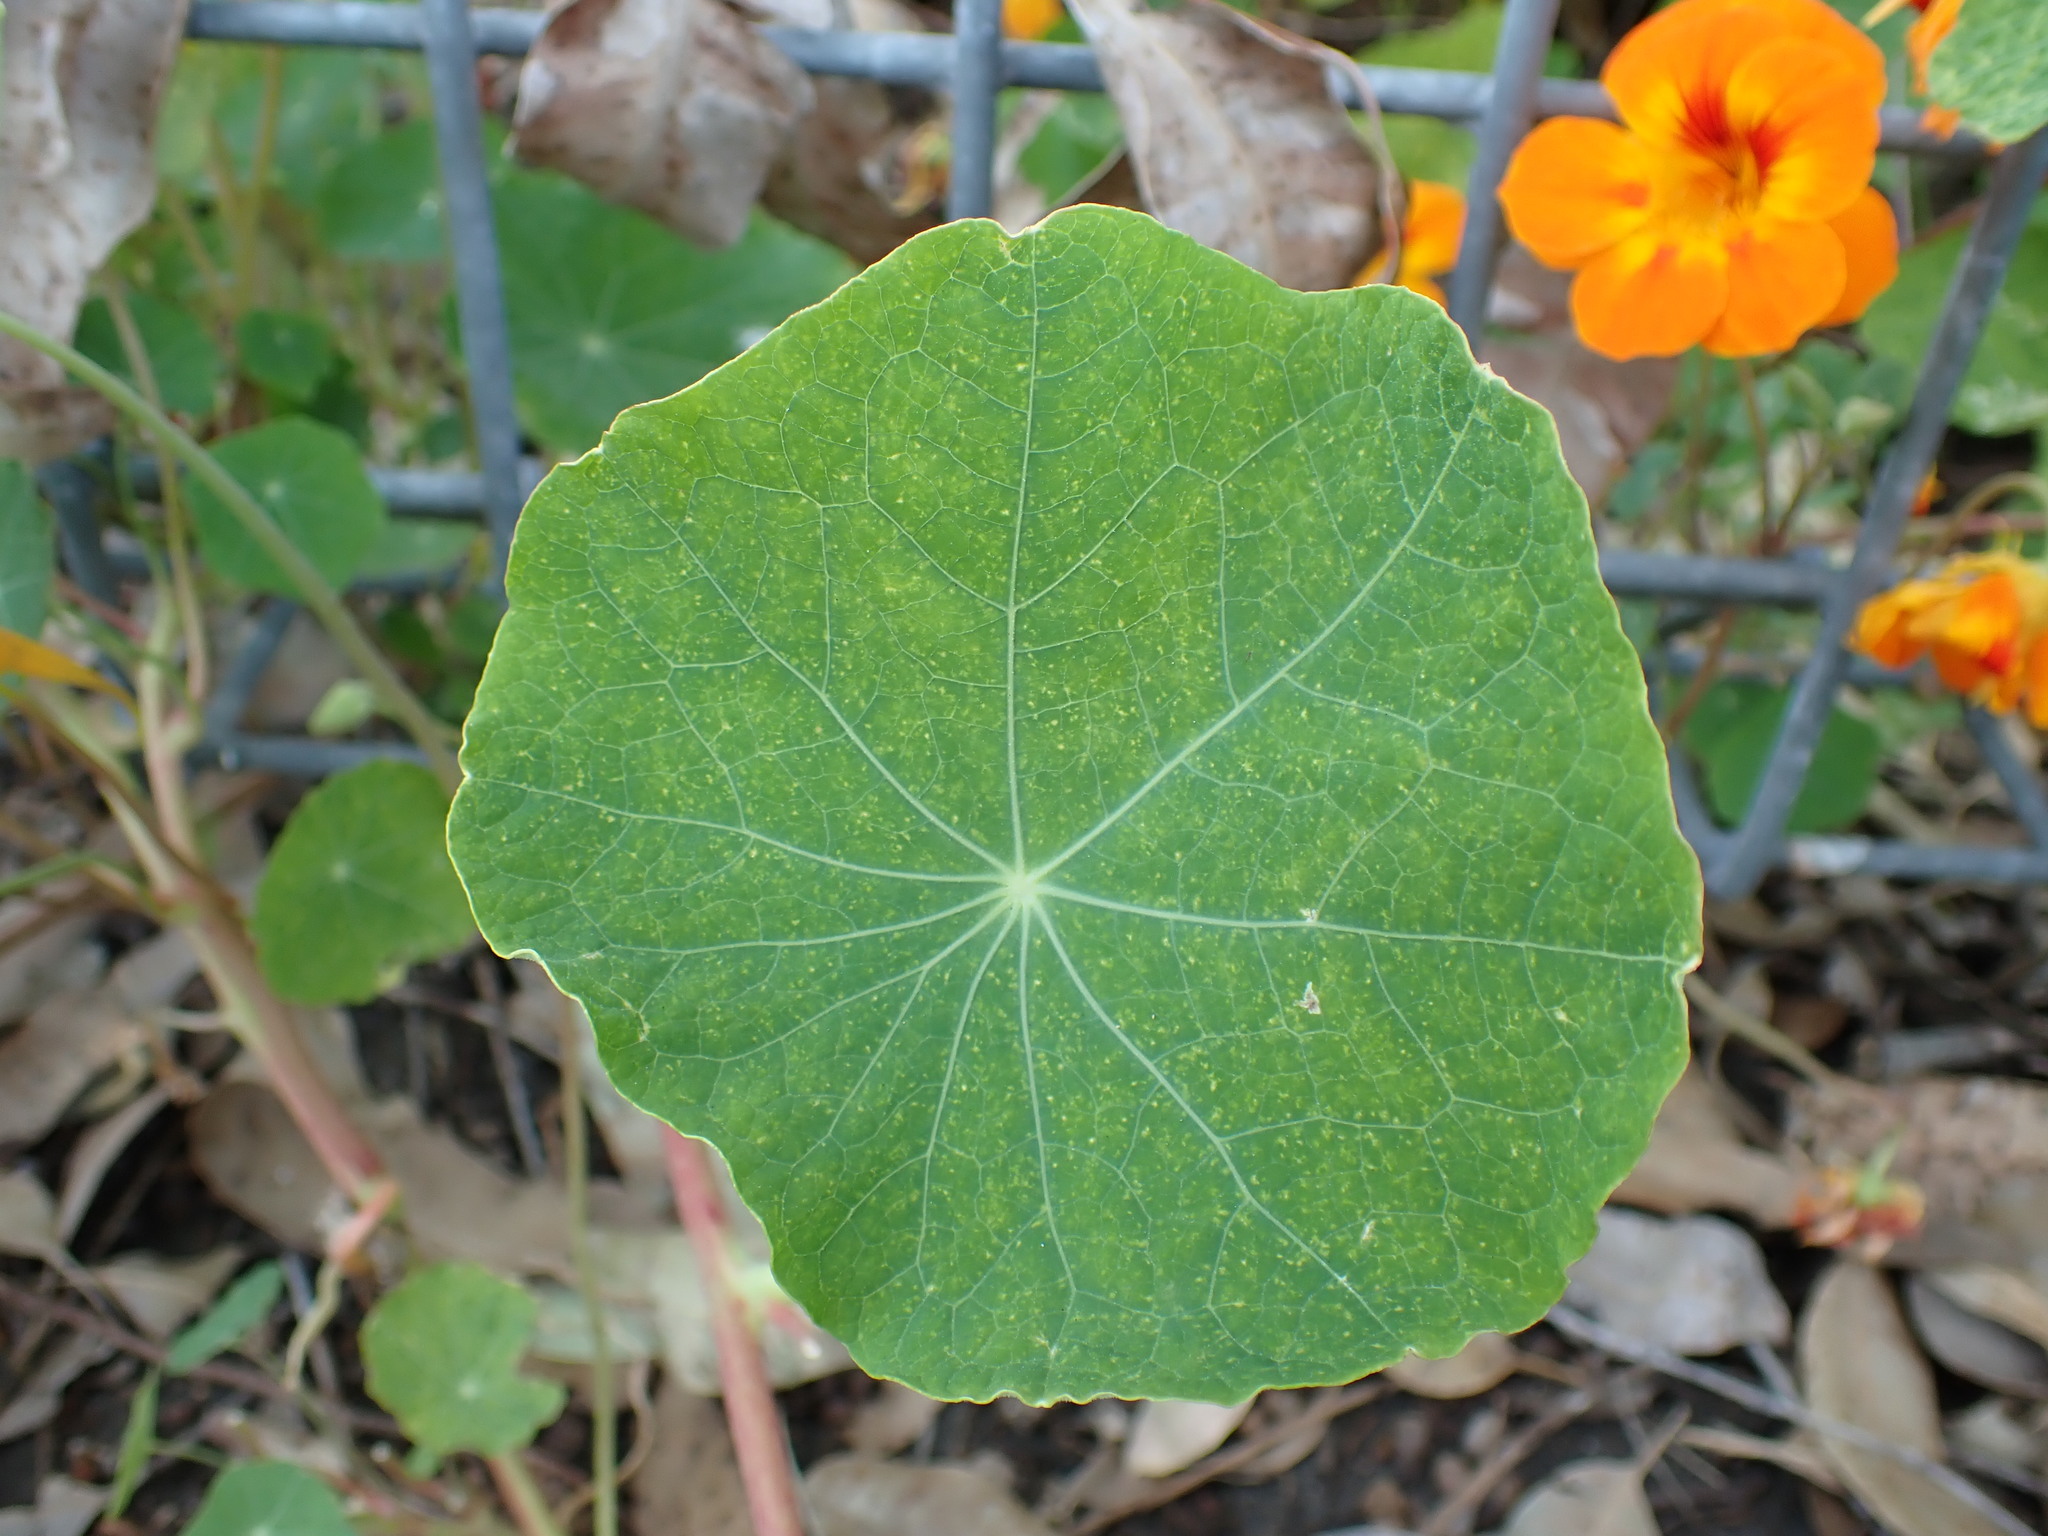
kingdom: Plantae
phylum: Tracheophyta
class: Magnoliopsida
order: Brassicales
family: Tropaeolaceae
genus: Tropaeolum
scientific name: Tropaeolum majus
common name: Nasturtium
